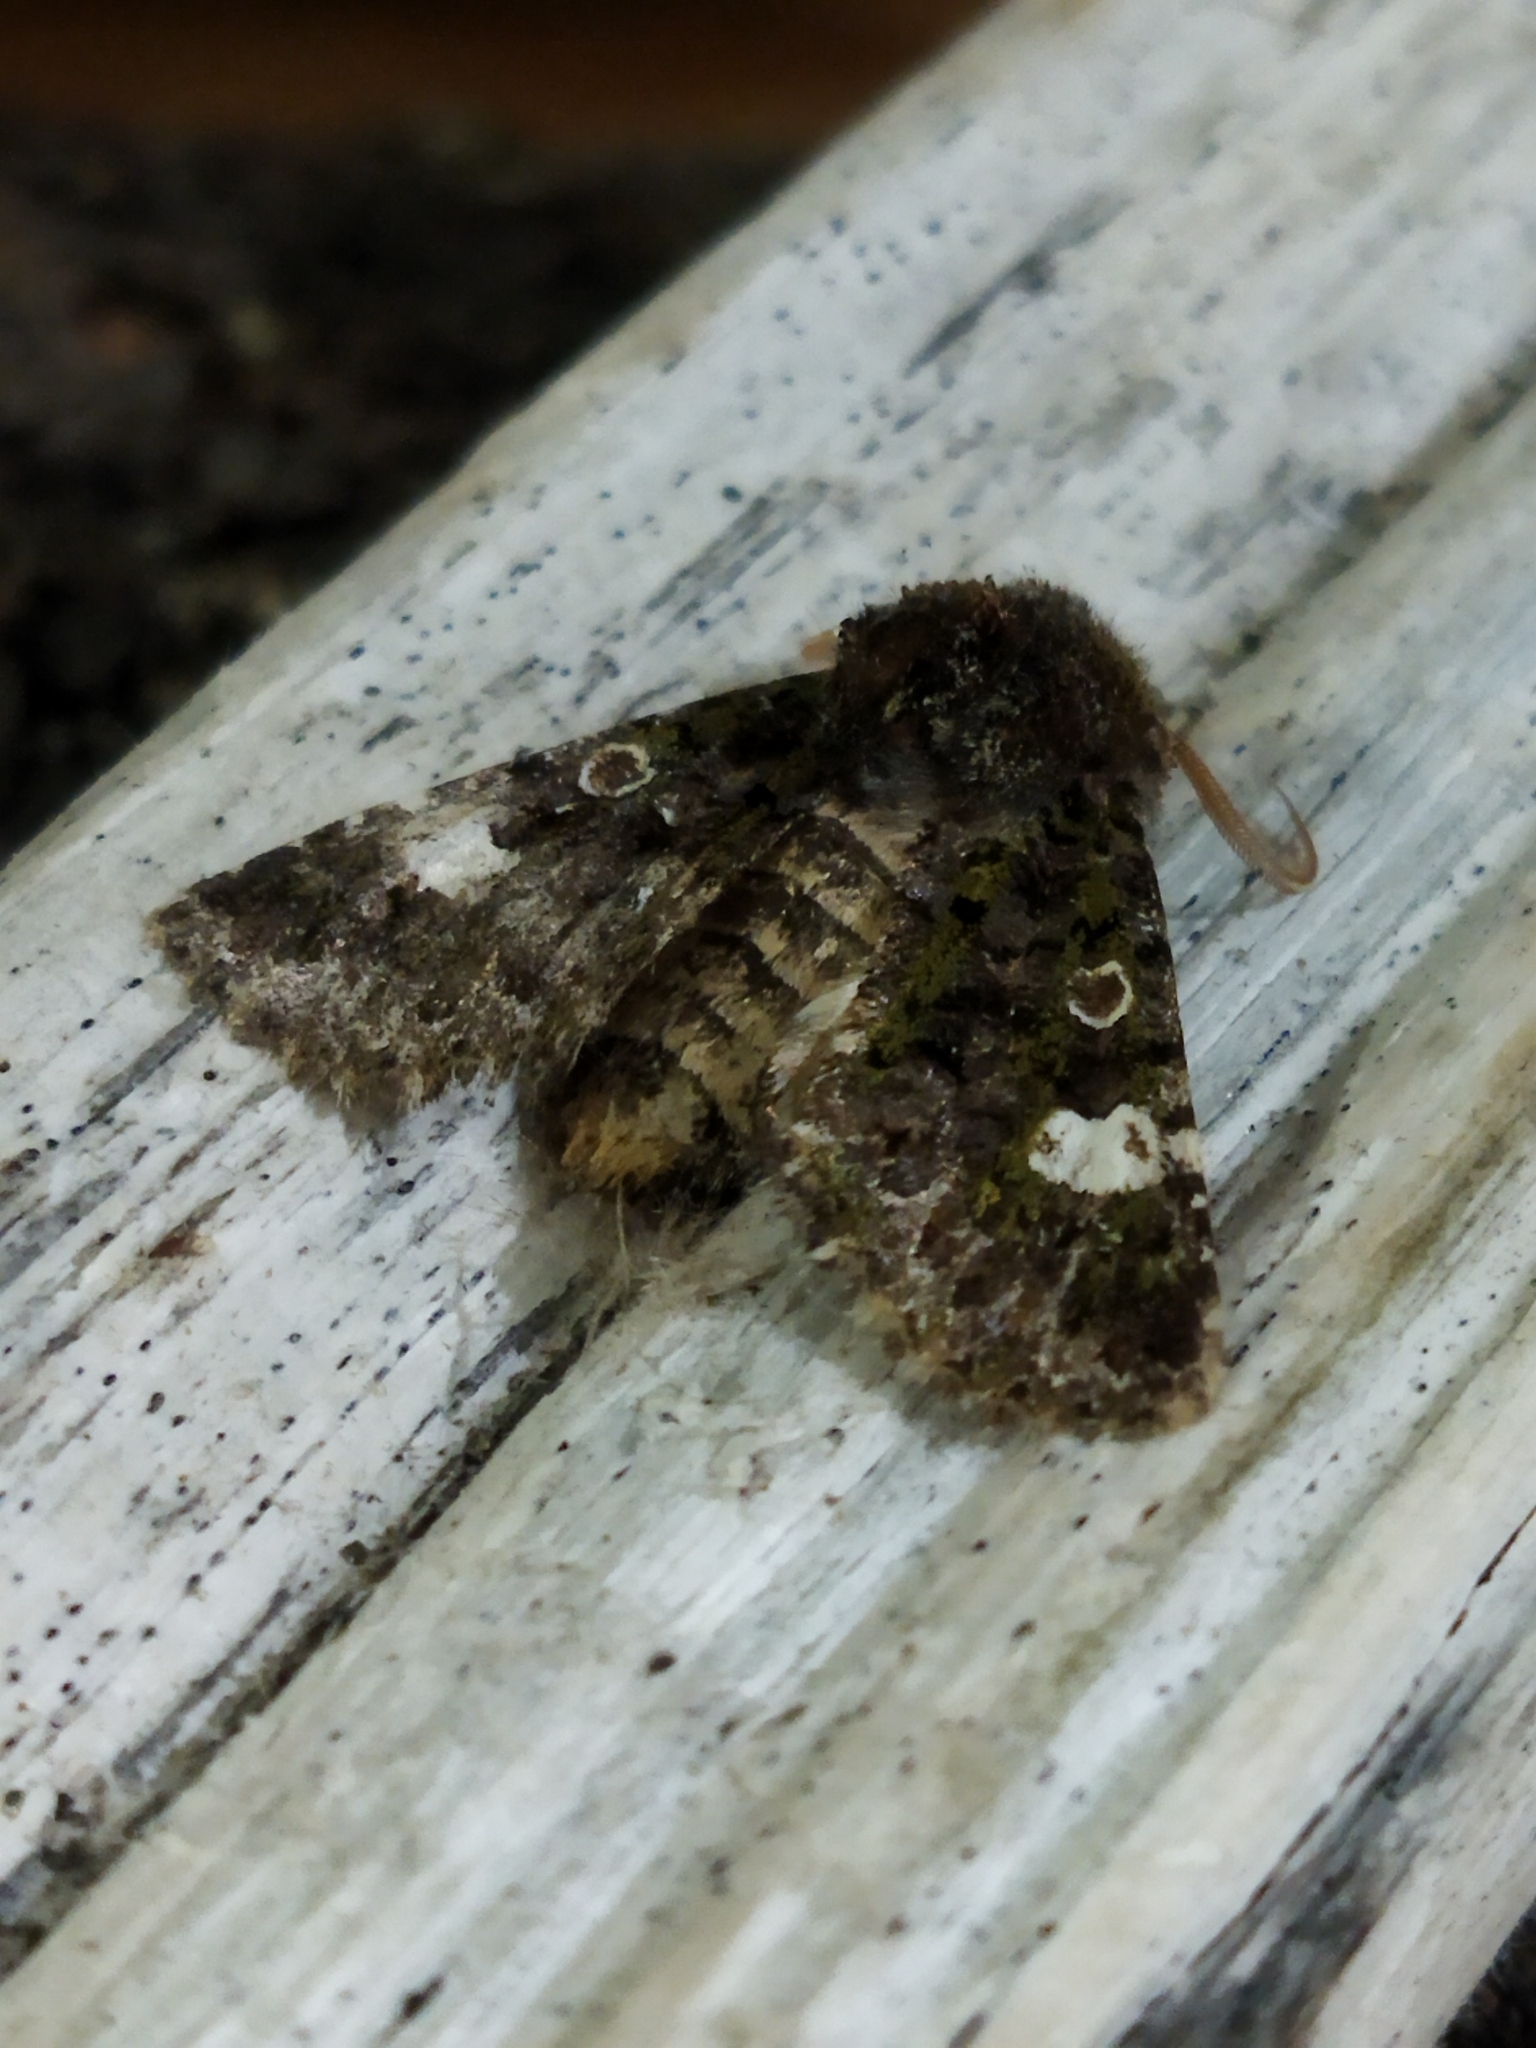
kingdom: Animalia
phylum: Arthropoda
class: Insecta
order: Lepidoptera
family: Noctuidae
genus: Valeria
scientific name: Valeria oleagina
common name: Green-brindled dot
